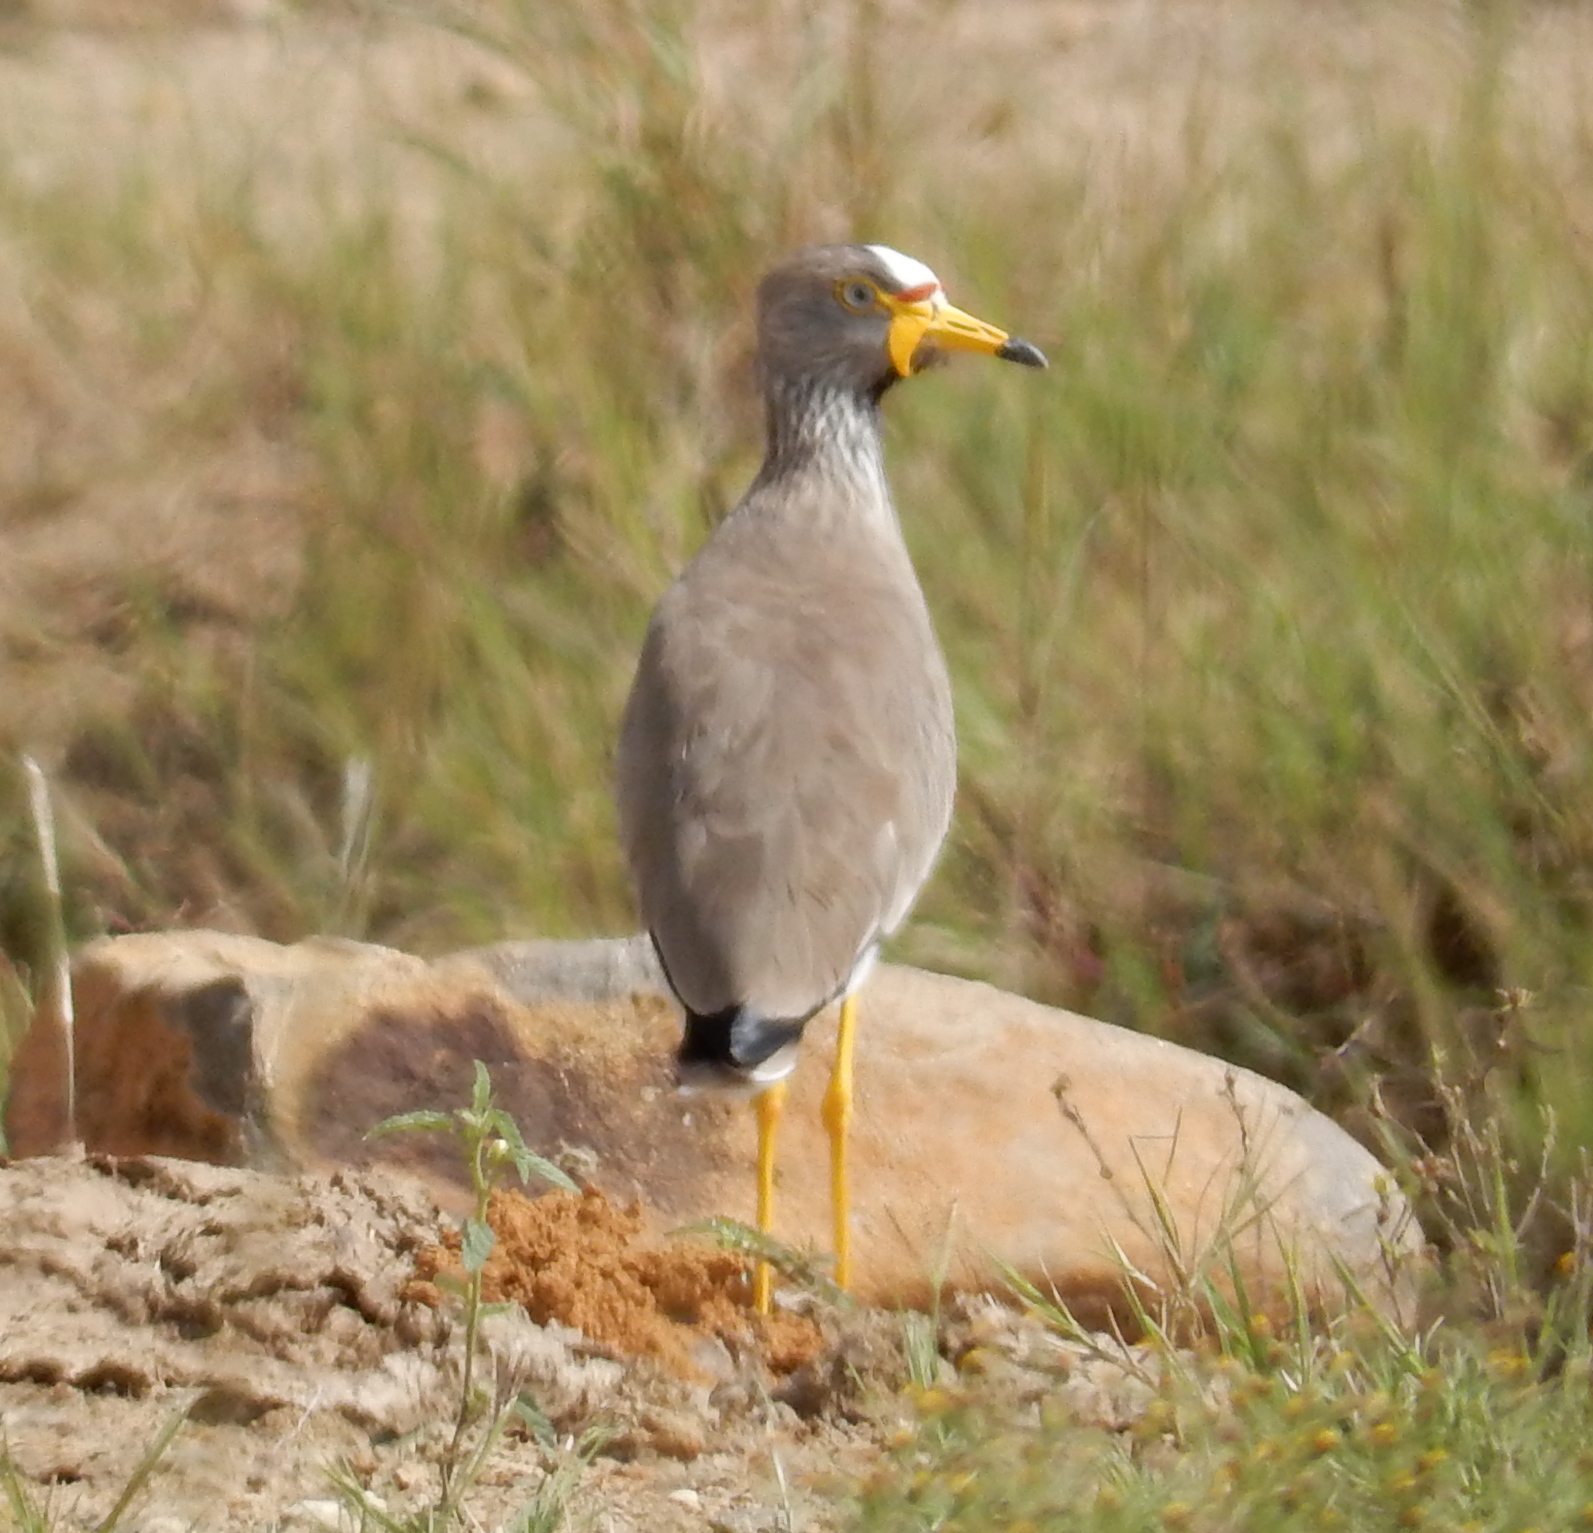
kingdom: Animalia
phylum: Chordata
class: Aves
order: Charadriiformes
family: Charadriidae
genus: Vanellus
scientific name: Vanellus senegallus
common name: African wattled lapwing
